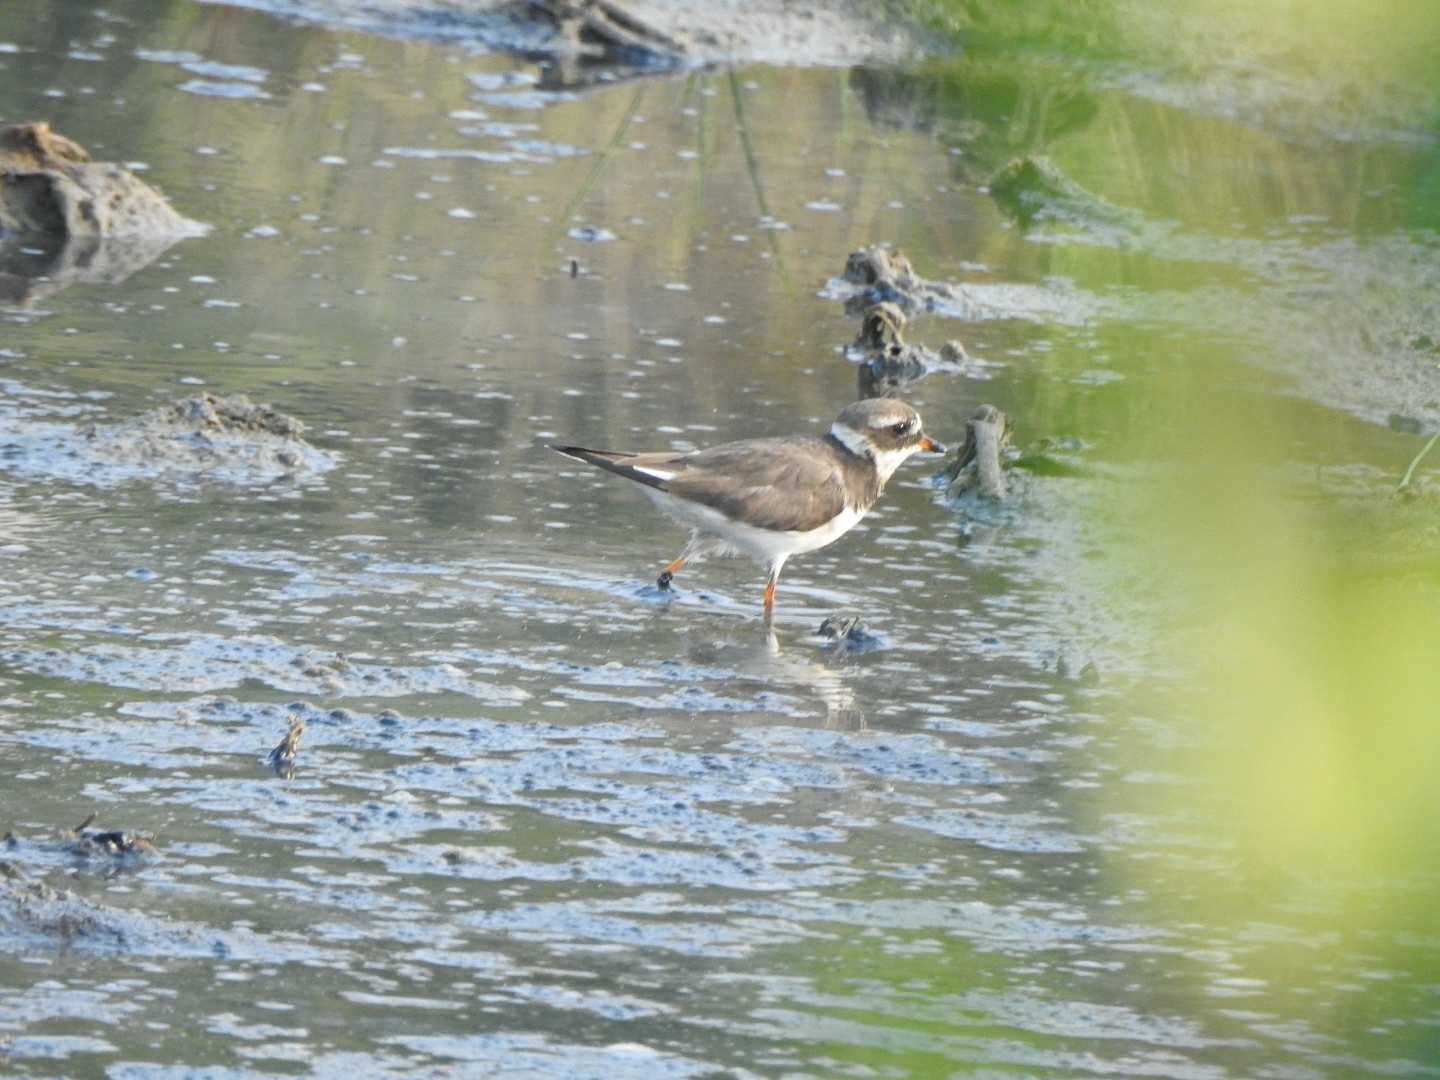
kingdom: Animalia
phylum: Chordata
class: Aves
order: Charadriiformes
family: Charadriidae
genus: Charadrius
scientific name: Charadrius hiaticula
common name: Common ringed plover
